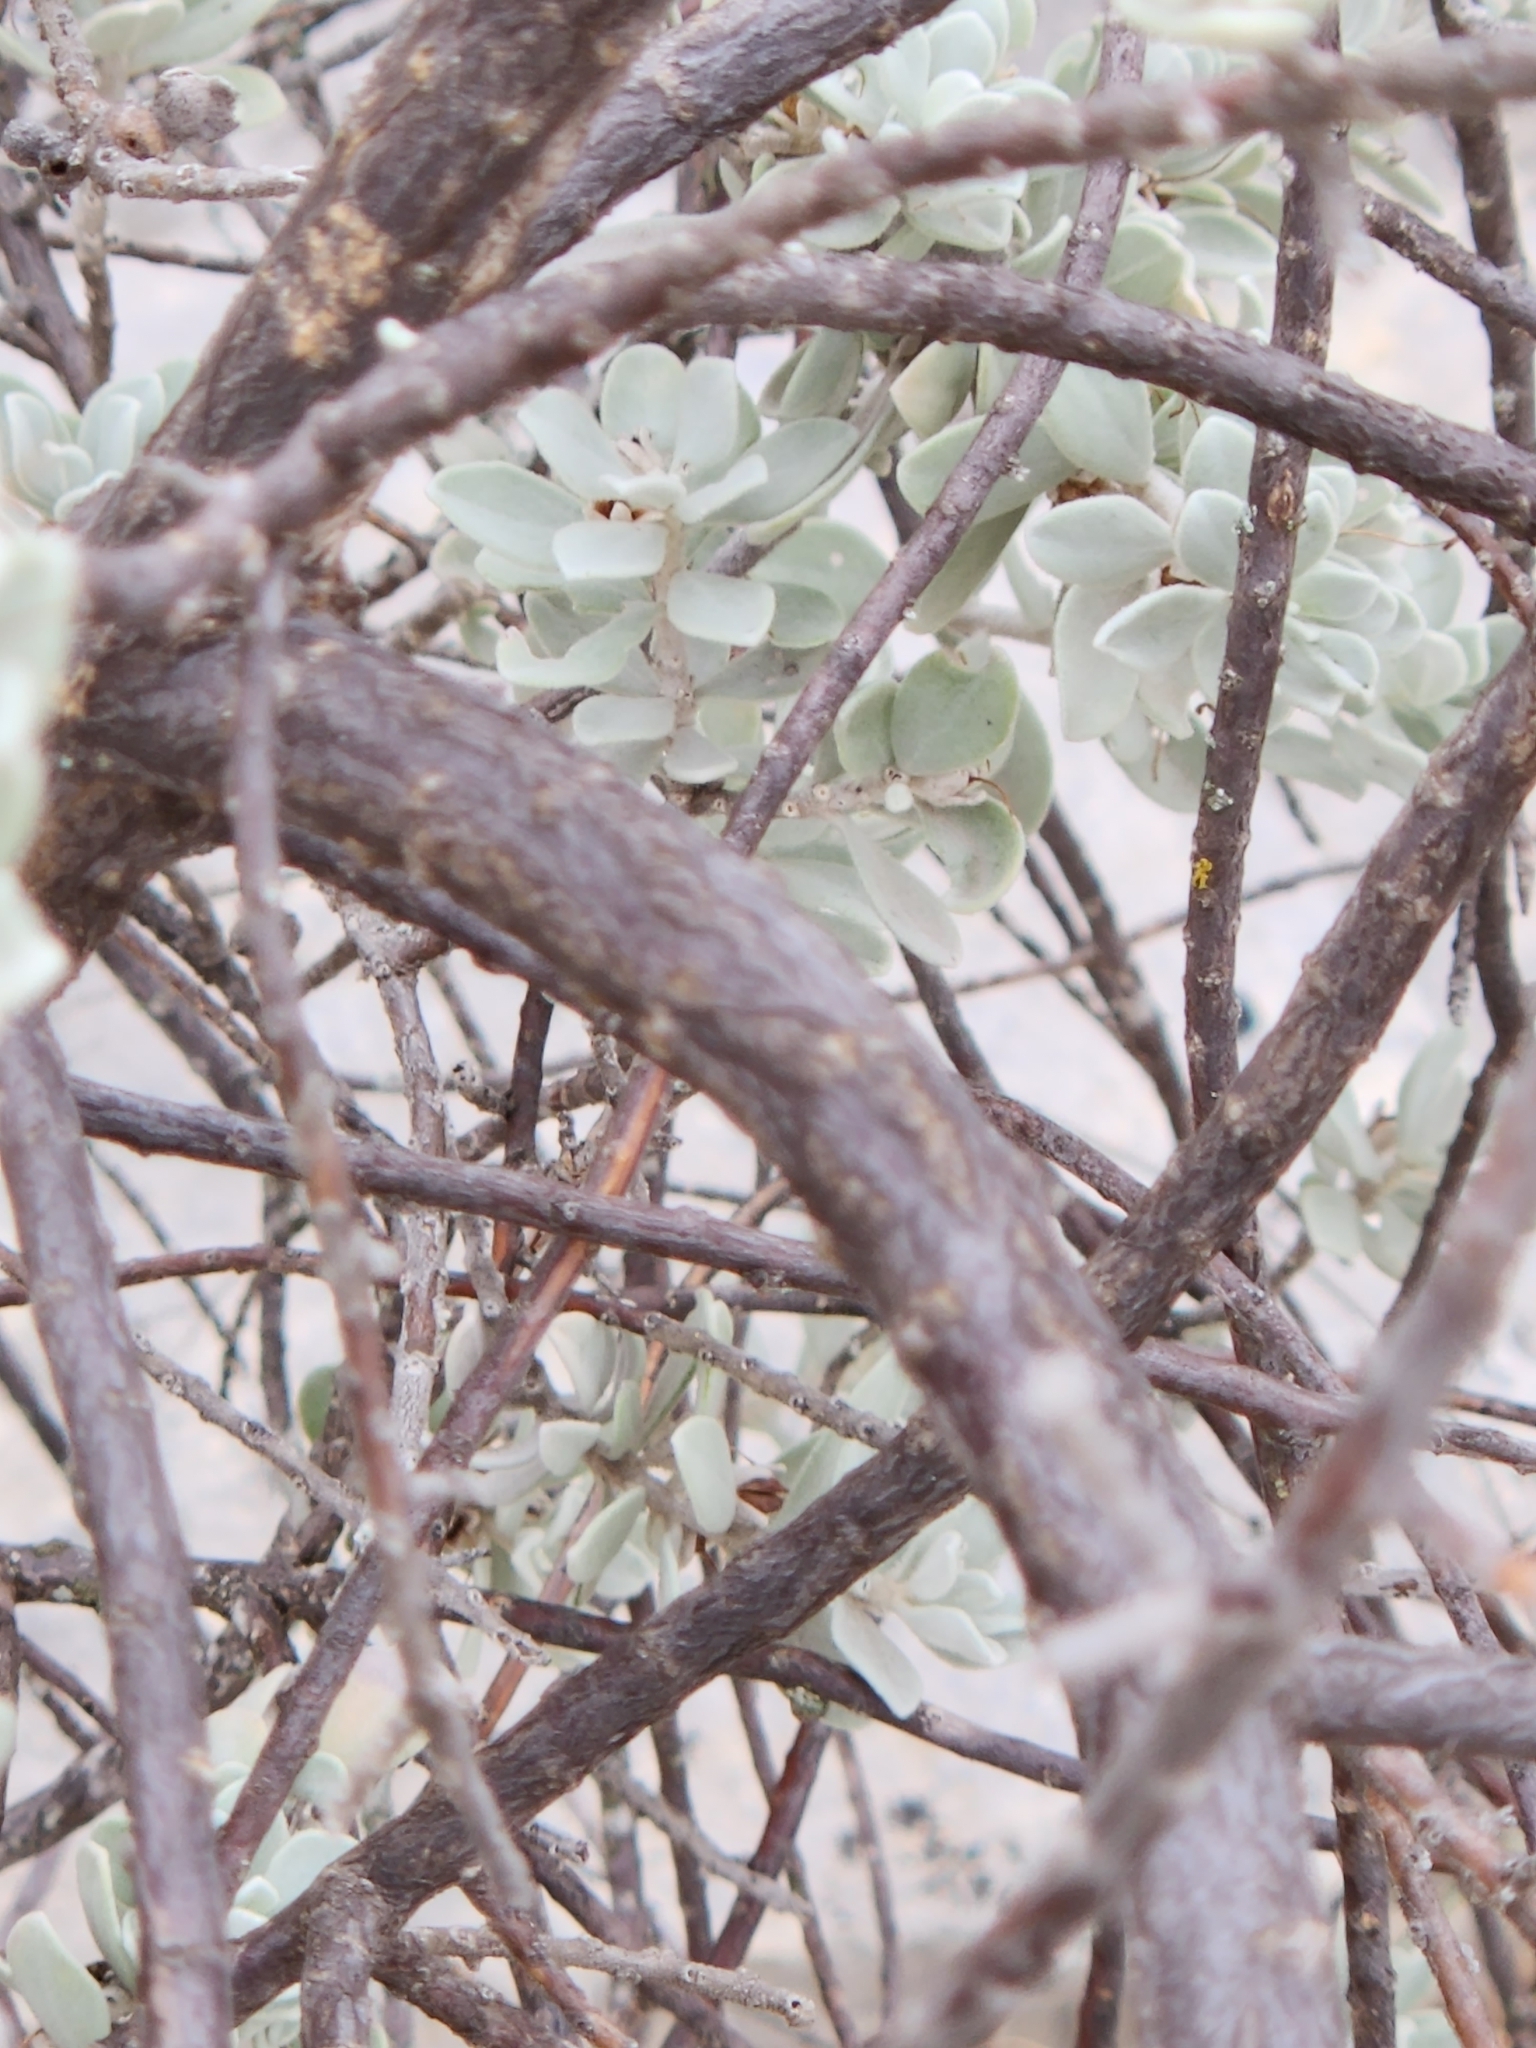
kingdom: Plantae
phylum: Tracheophyta
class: Magnoliopsida
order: Lamiales
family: Scrophulariaceae
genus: Leucophyllum
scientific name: Leucophyllum frutescens
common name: Texas silverleaf
